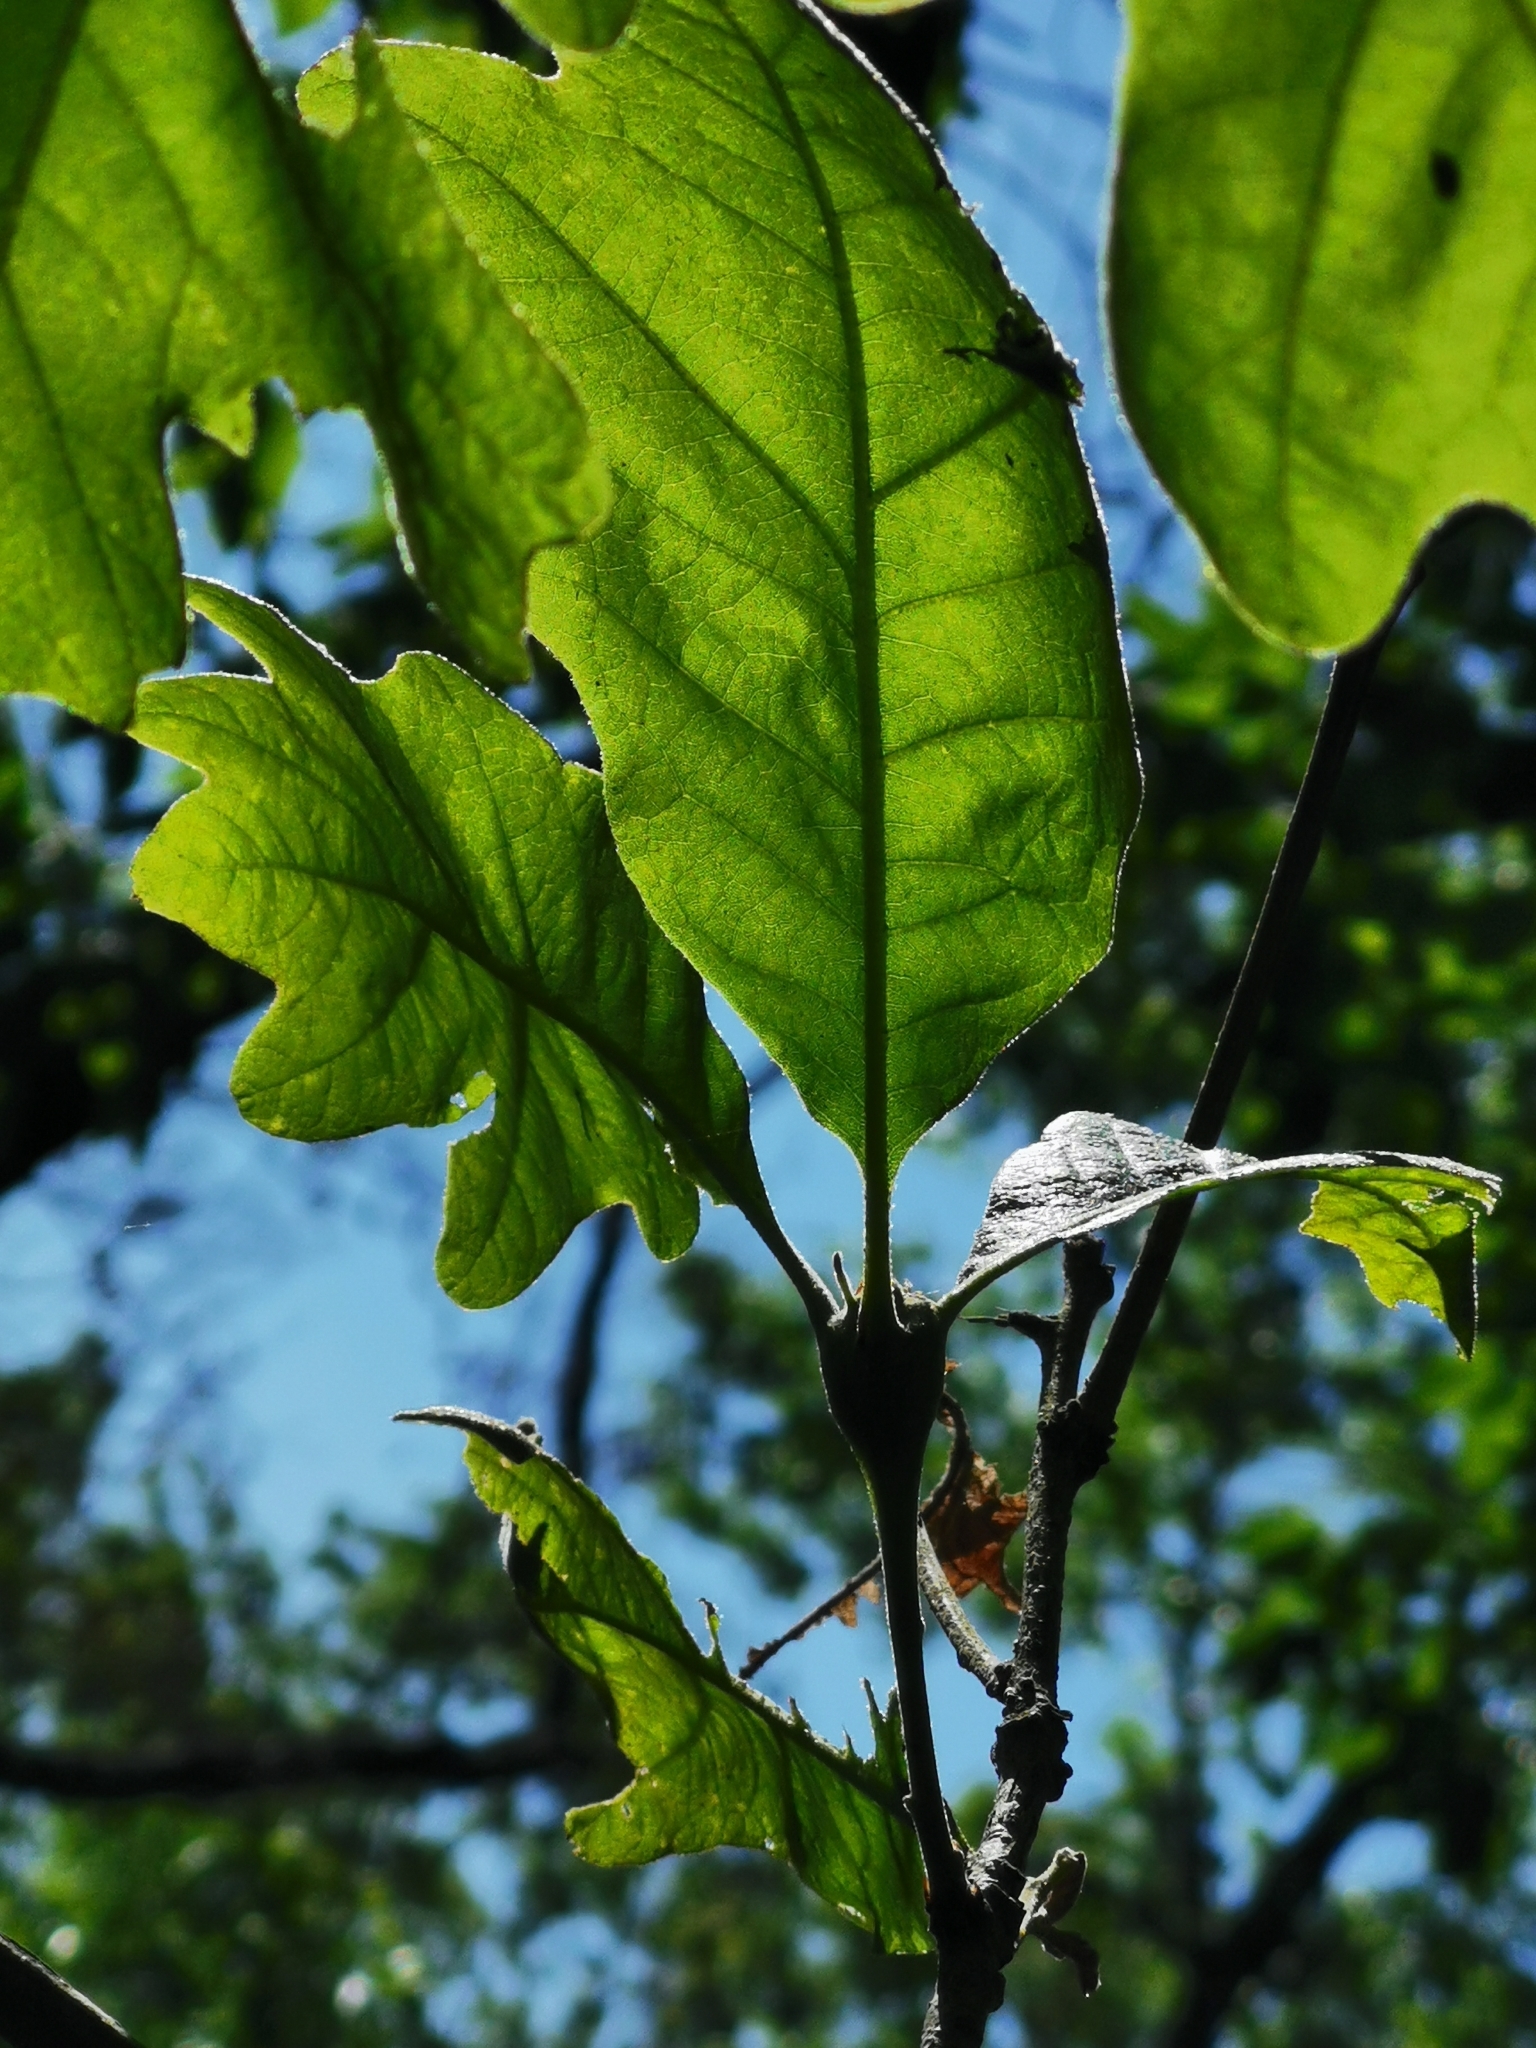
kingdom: Animalia
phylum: Arthropoda
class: Insecta
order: Hymenoptera
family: Cynipidae
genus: Callirhytis
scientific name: Callirhytis clavula
